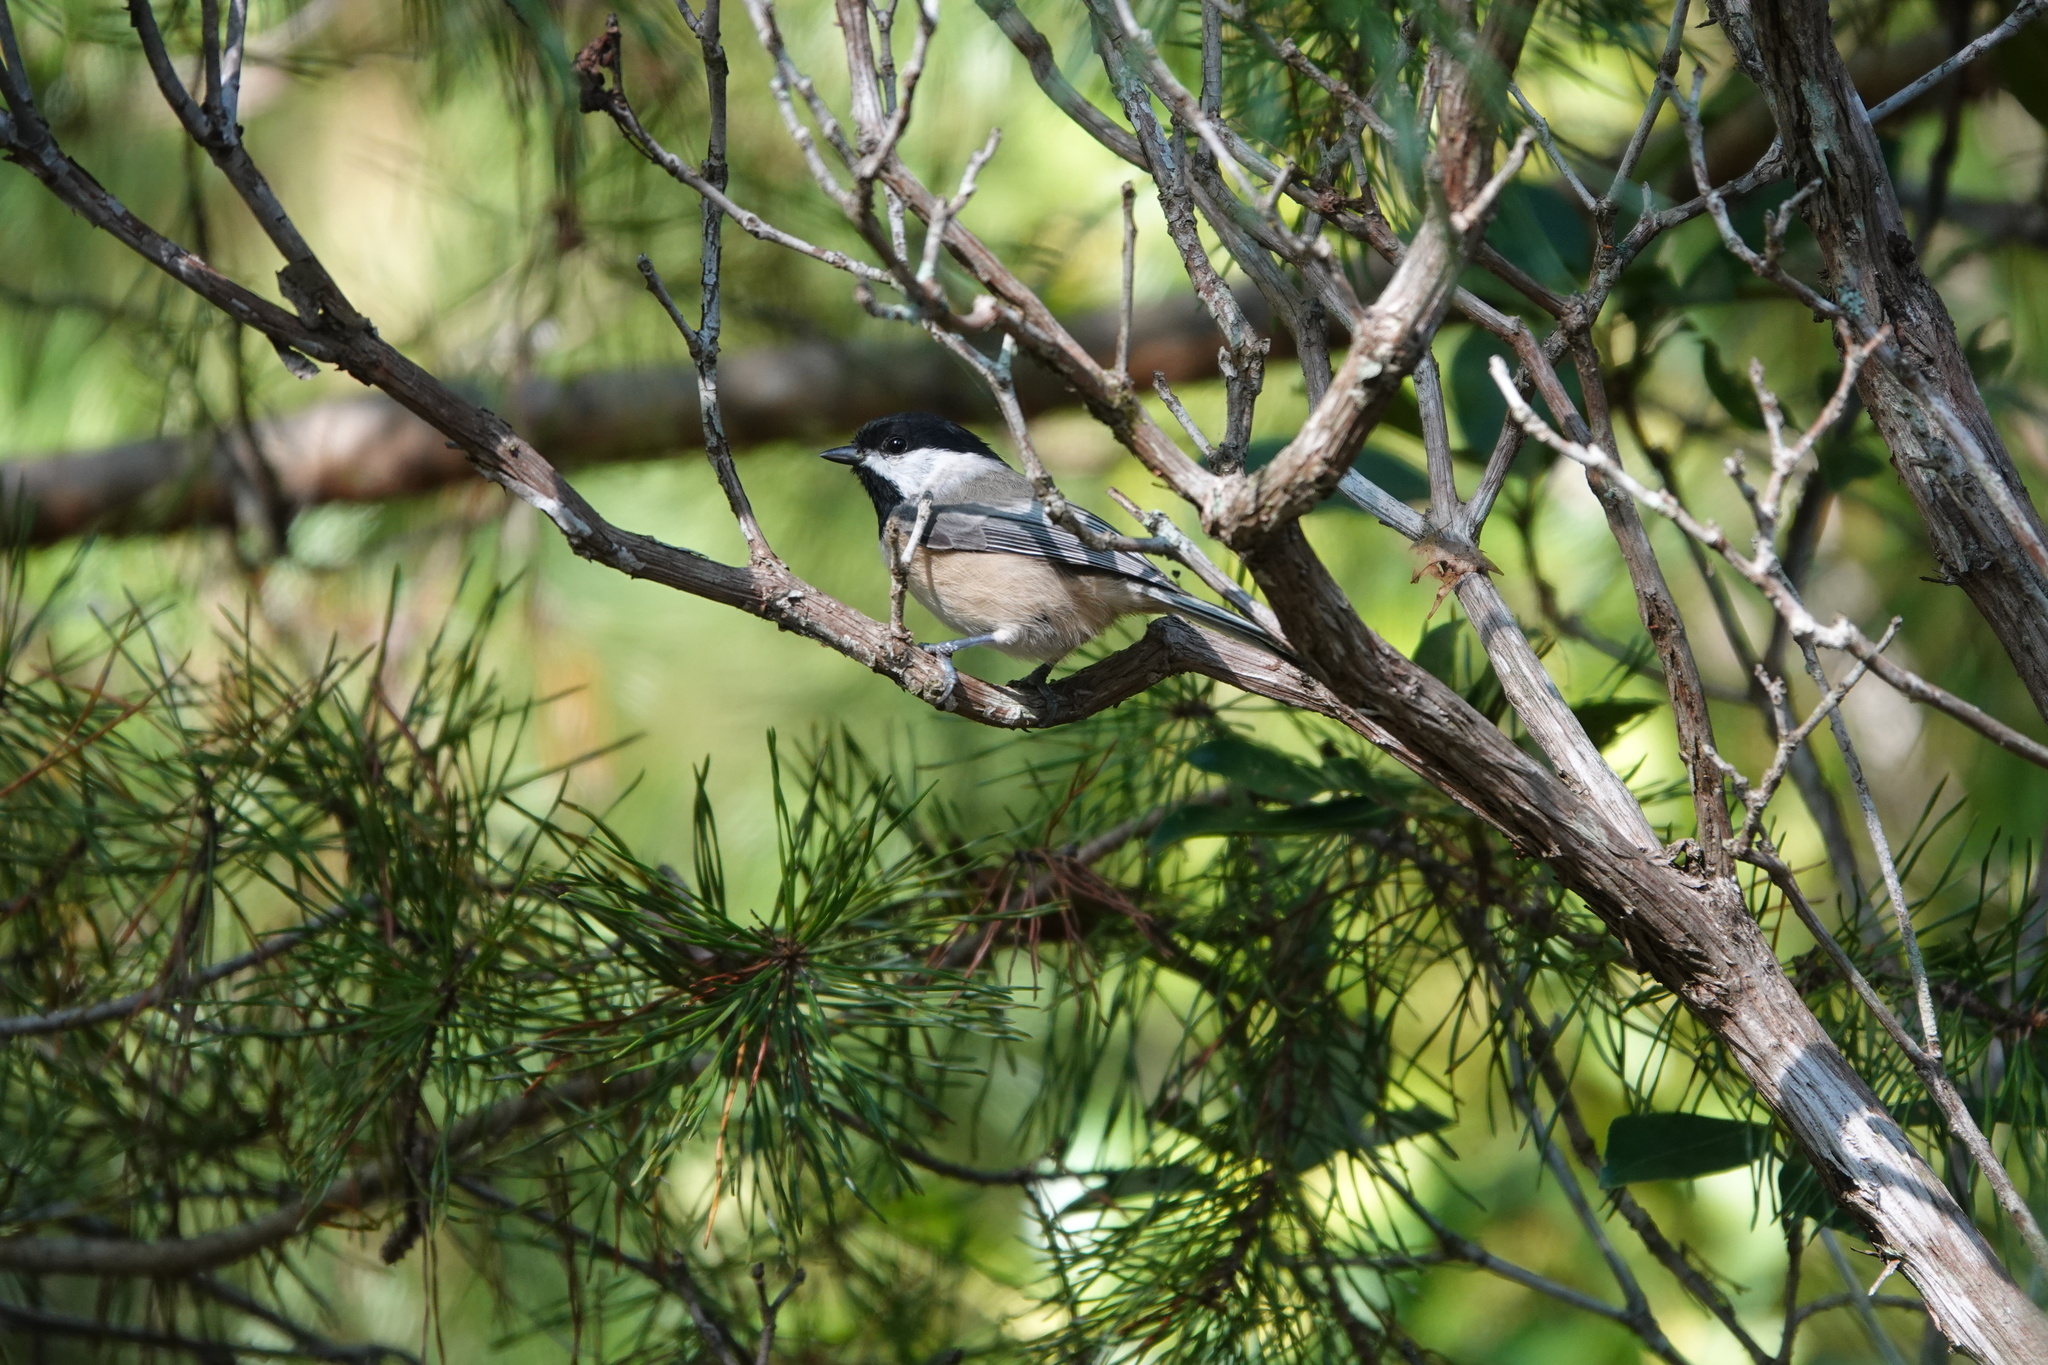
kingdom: Animalia
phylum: Chordata
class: Aves
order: Passeriformes
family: Paridae
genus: Poecile
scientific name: Poecile carolinensis
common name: Carolina chickadee
